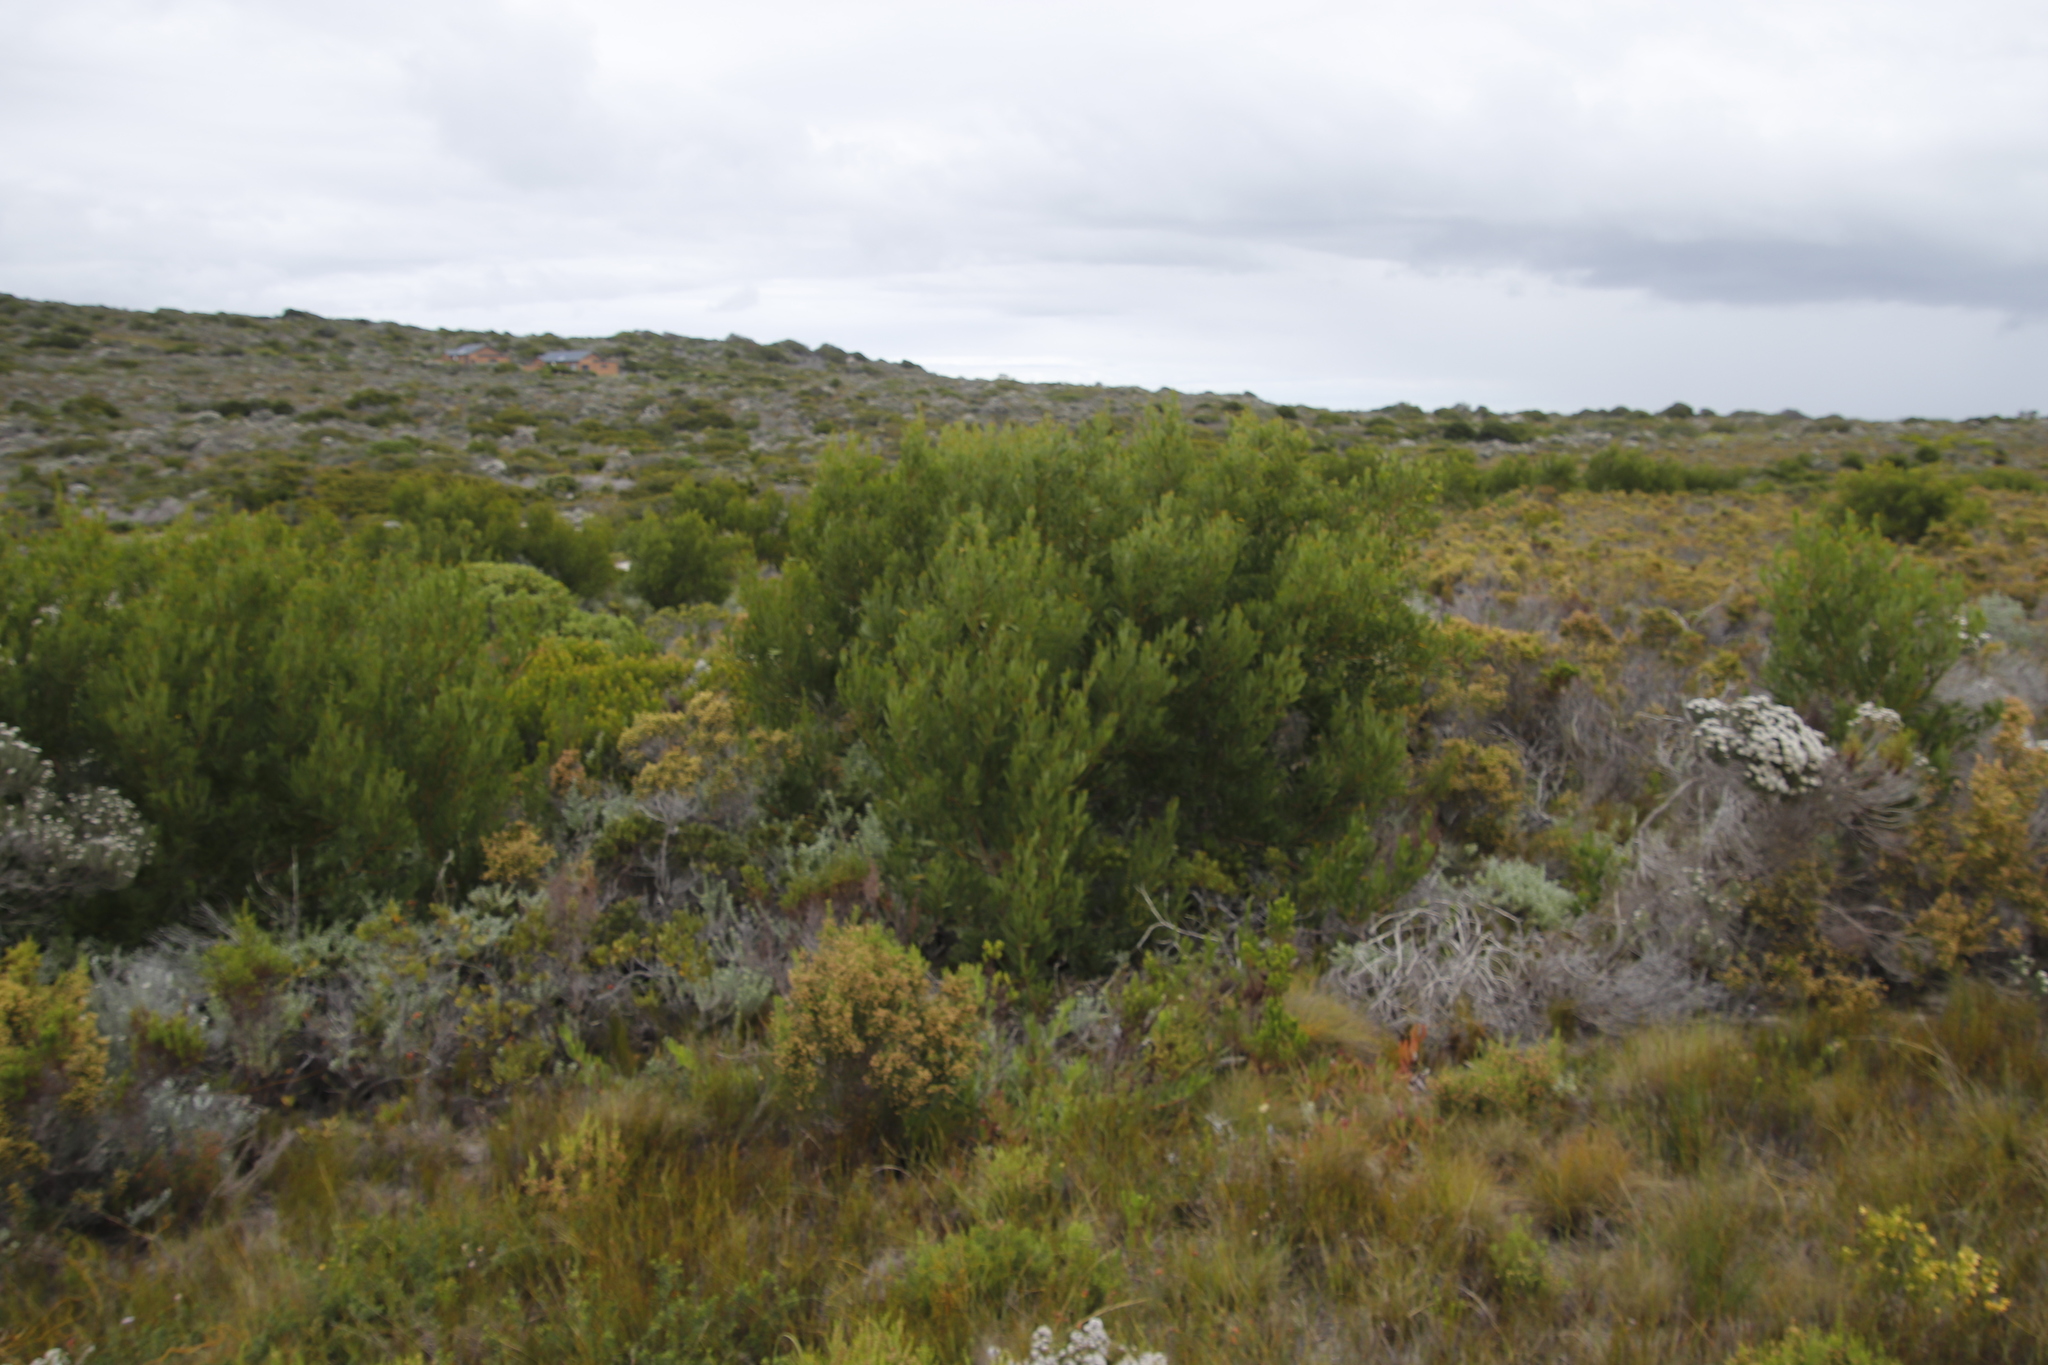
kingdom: Plantae
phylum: Tracheophyta
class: Magnoliopsida
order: Fabales
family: Fabaceae
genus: Acacia
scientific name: Acacia cyclops
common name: Coastal wattle
